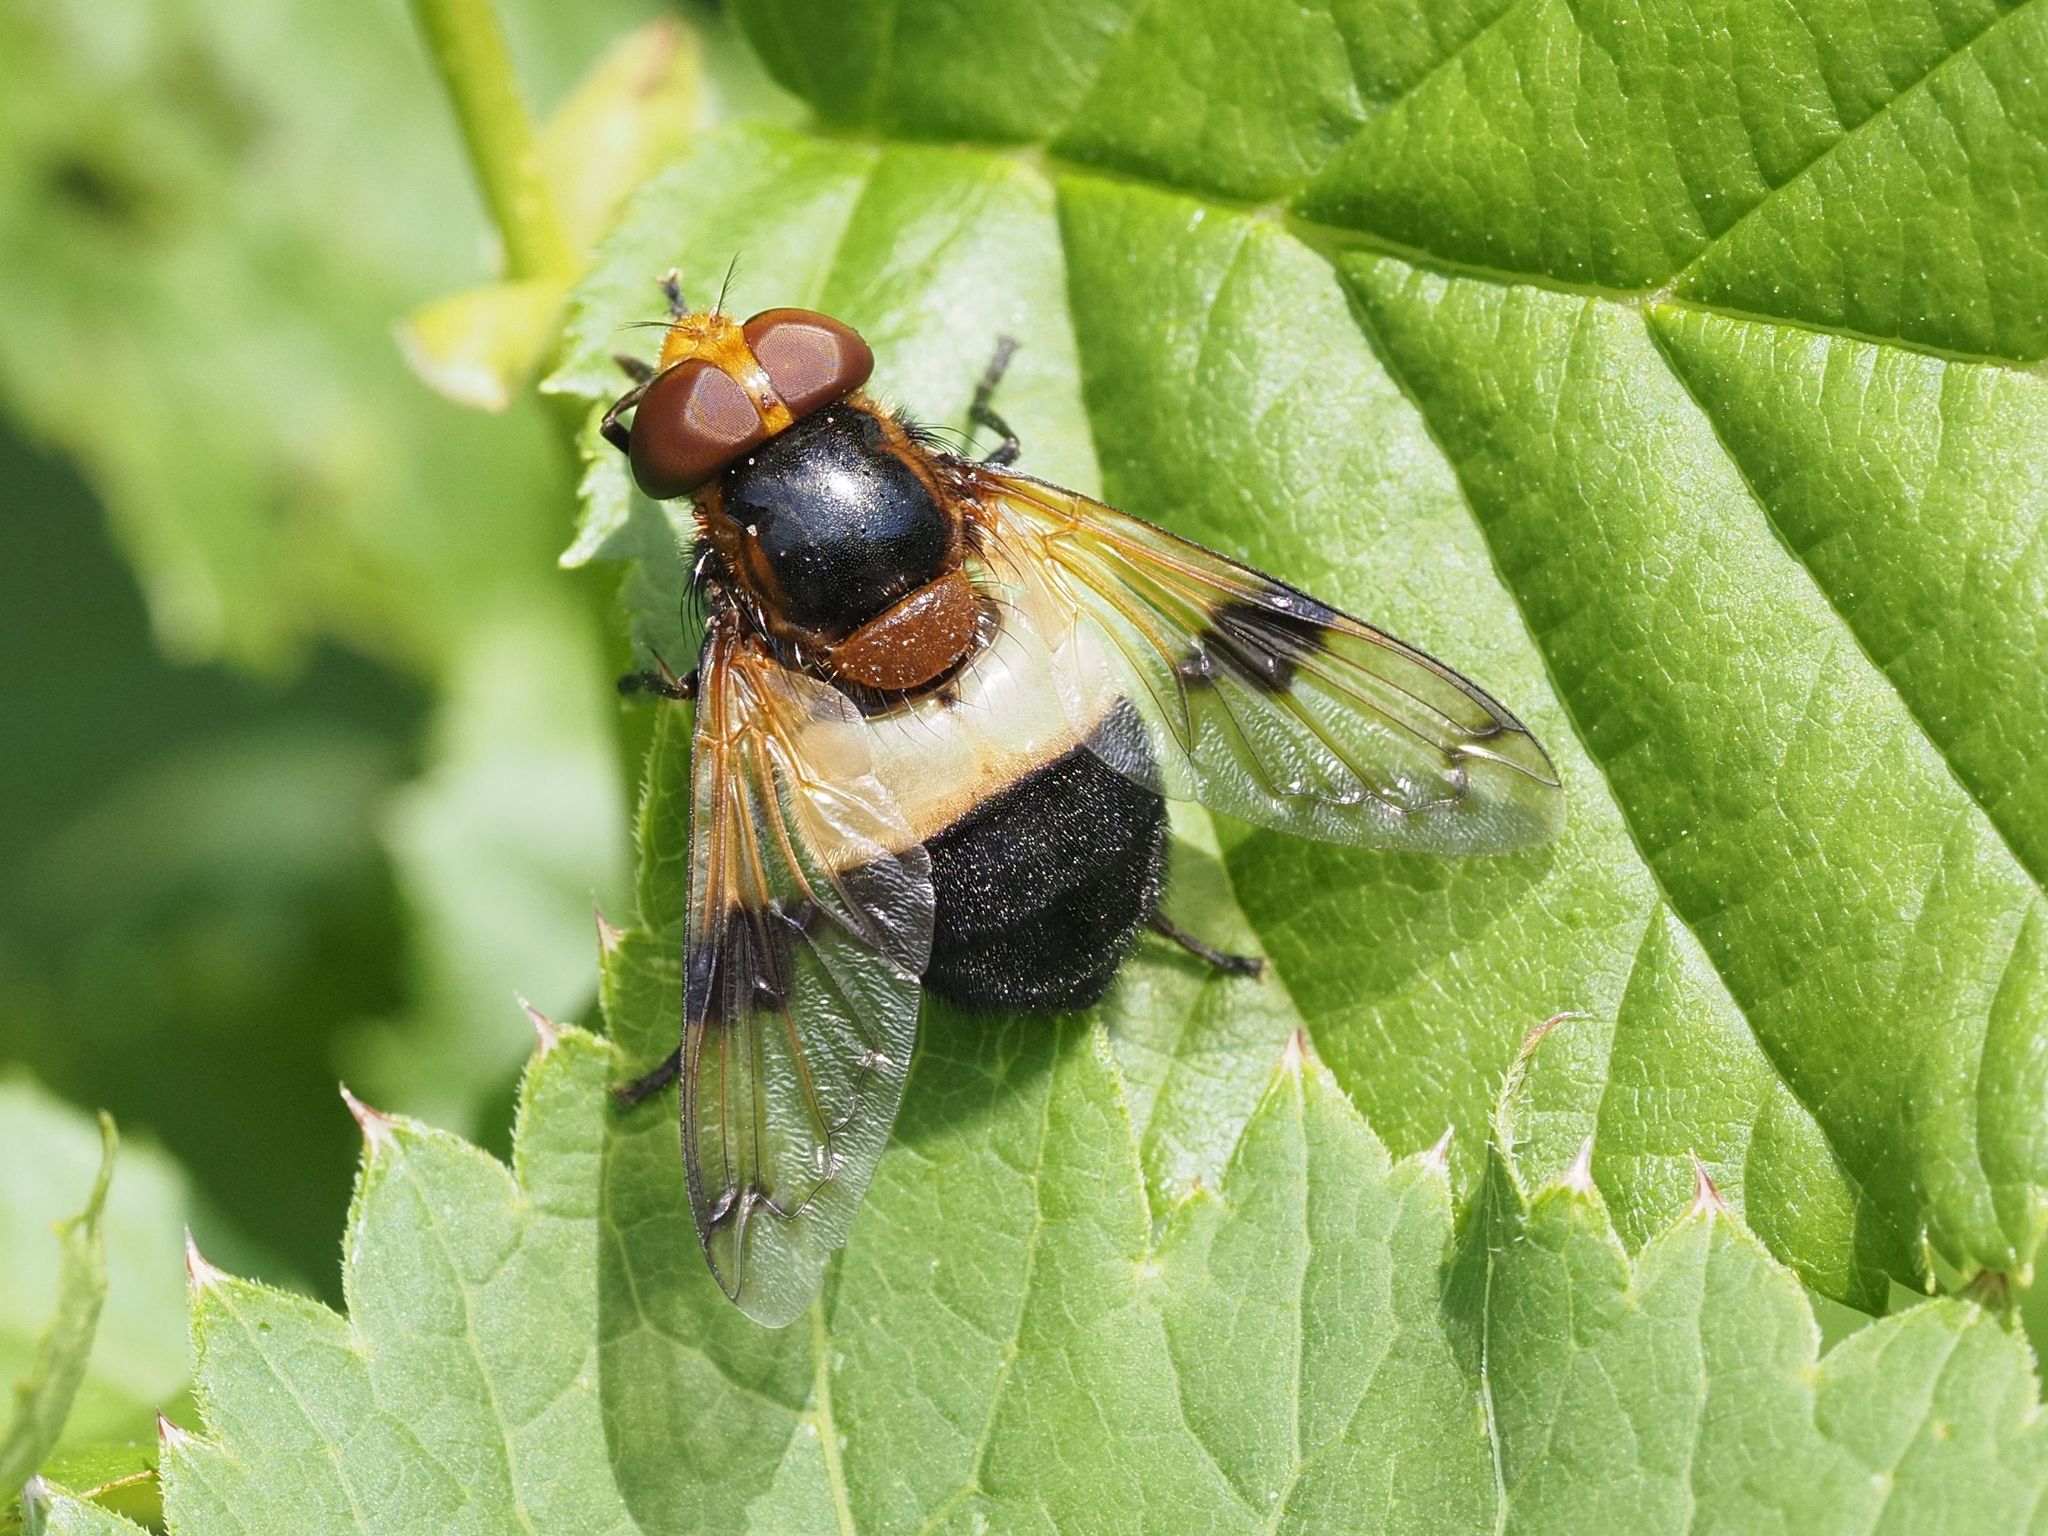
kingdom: Animalia
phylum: Arthropoda
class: Insecta
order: Diptera
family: Syrphidae
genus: Volucella
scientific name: Volucella pellucens
